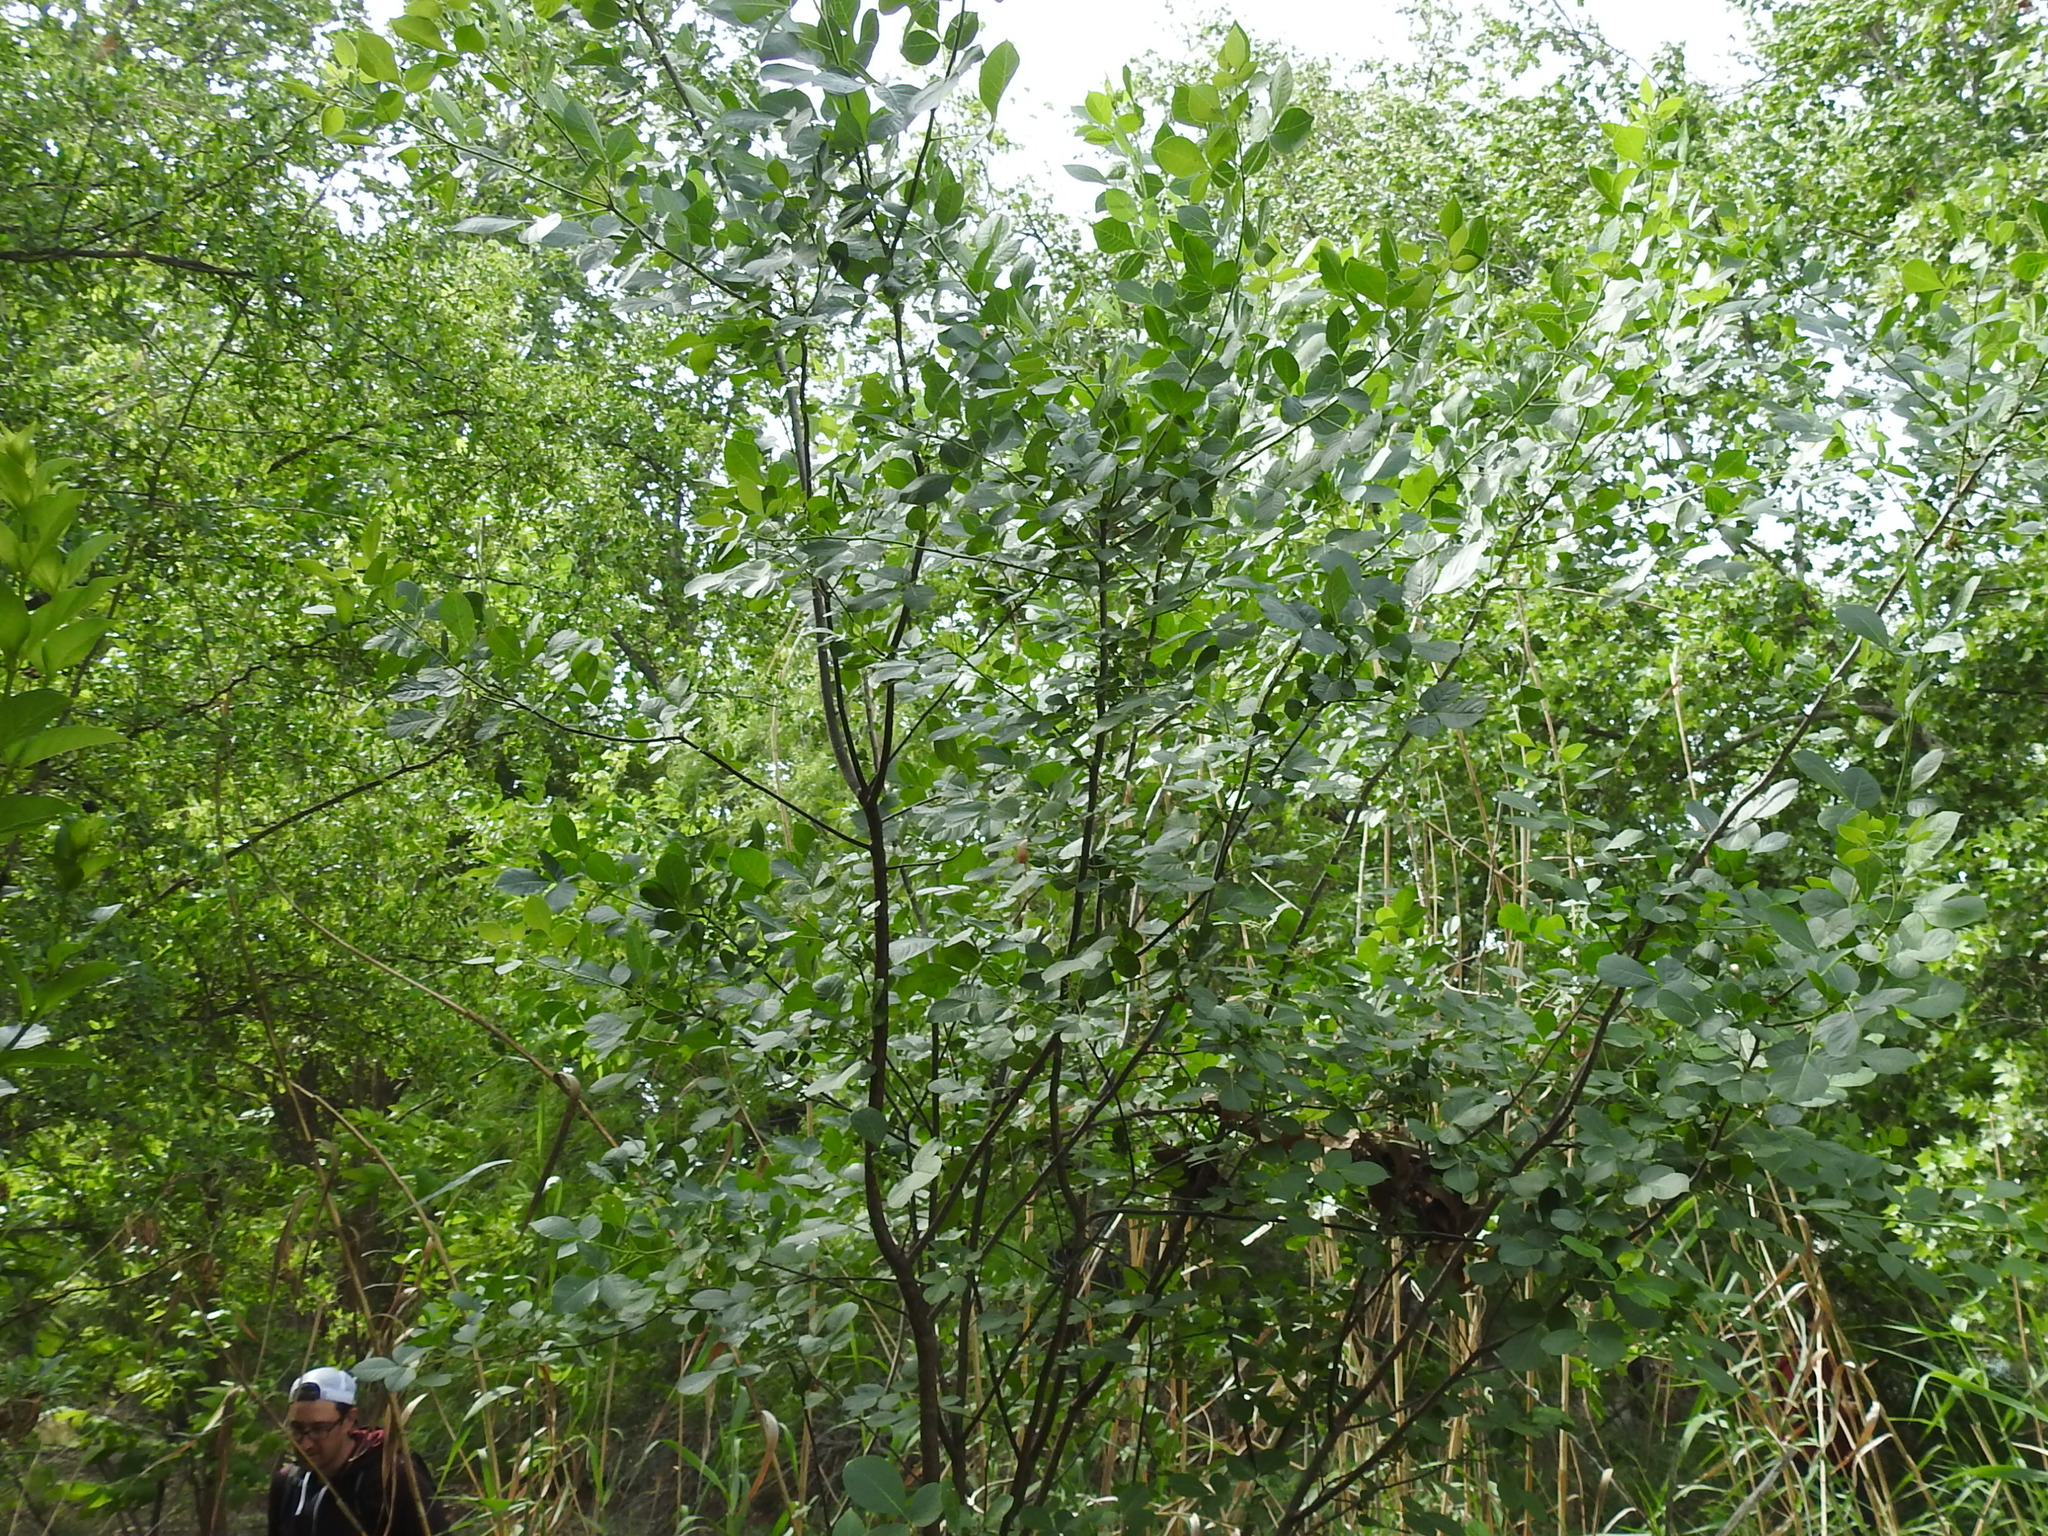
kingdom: Plantae
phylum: Tracheophyta
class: Magnoliopsida
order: Sapindales
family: Rutaceae
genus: Ptelea
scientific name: Ptelea trifoliata
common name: Common hop-tree
